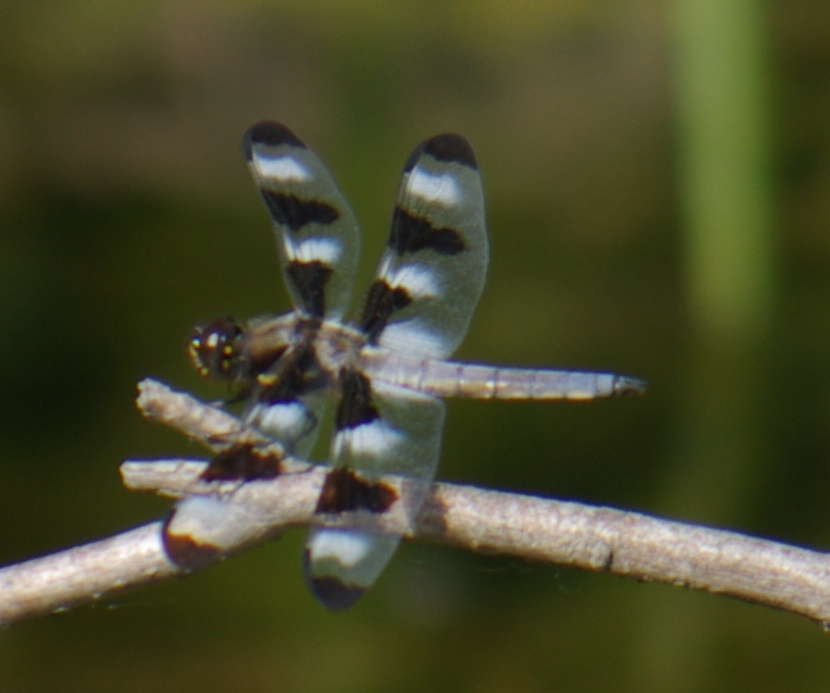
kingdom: Animalia
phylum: Arthropoda
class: Insecta
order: Odonata
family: Libellulidae
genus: Libellula
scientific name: Libellula pulchella
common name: Twelve-spotted skimmer
